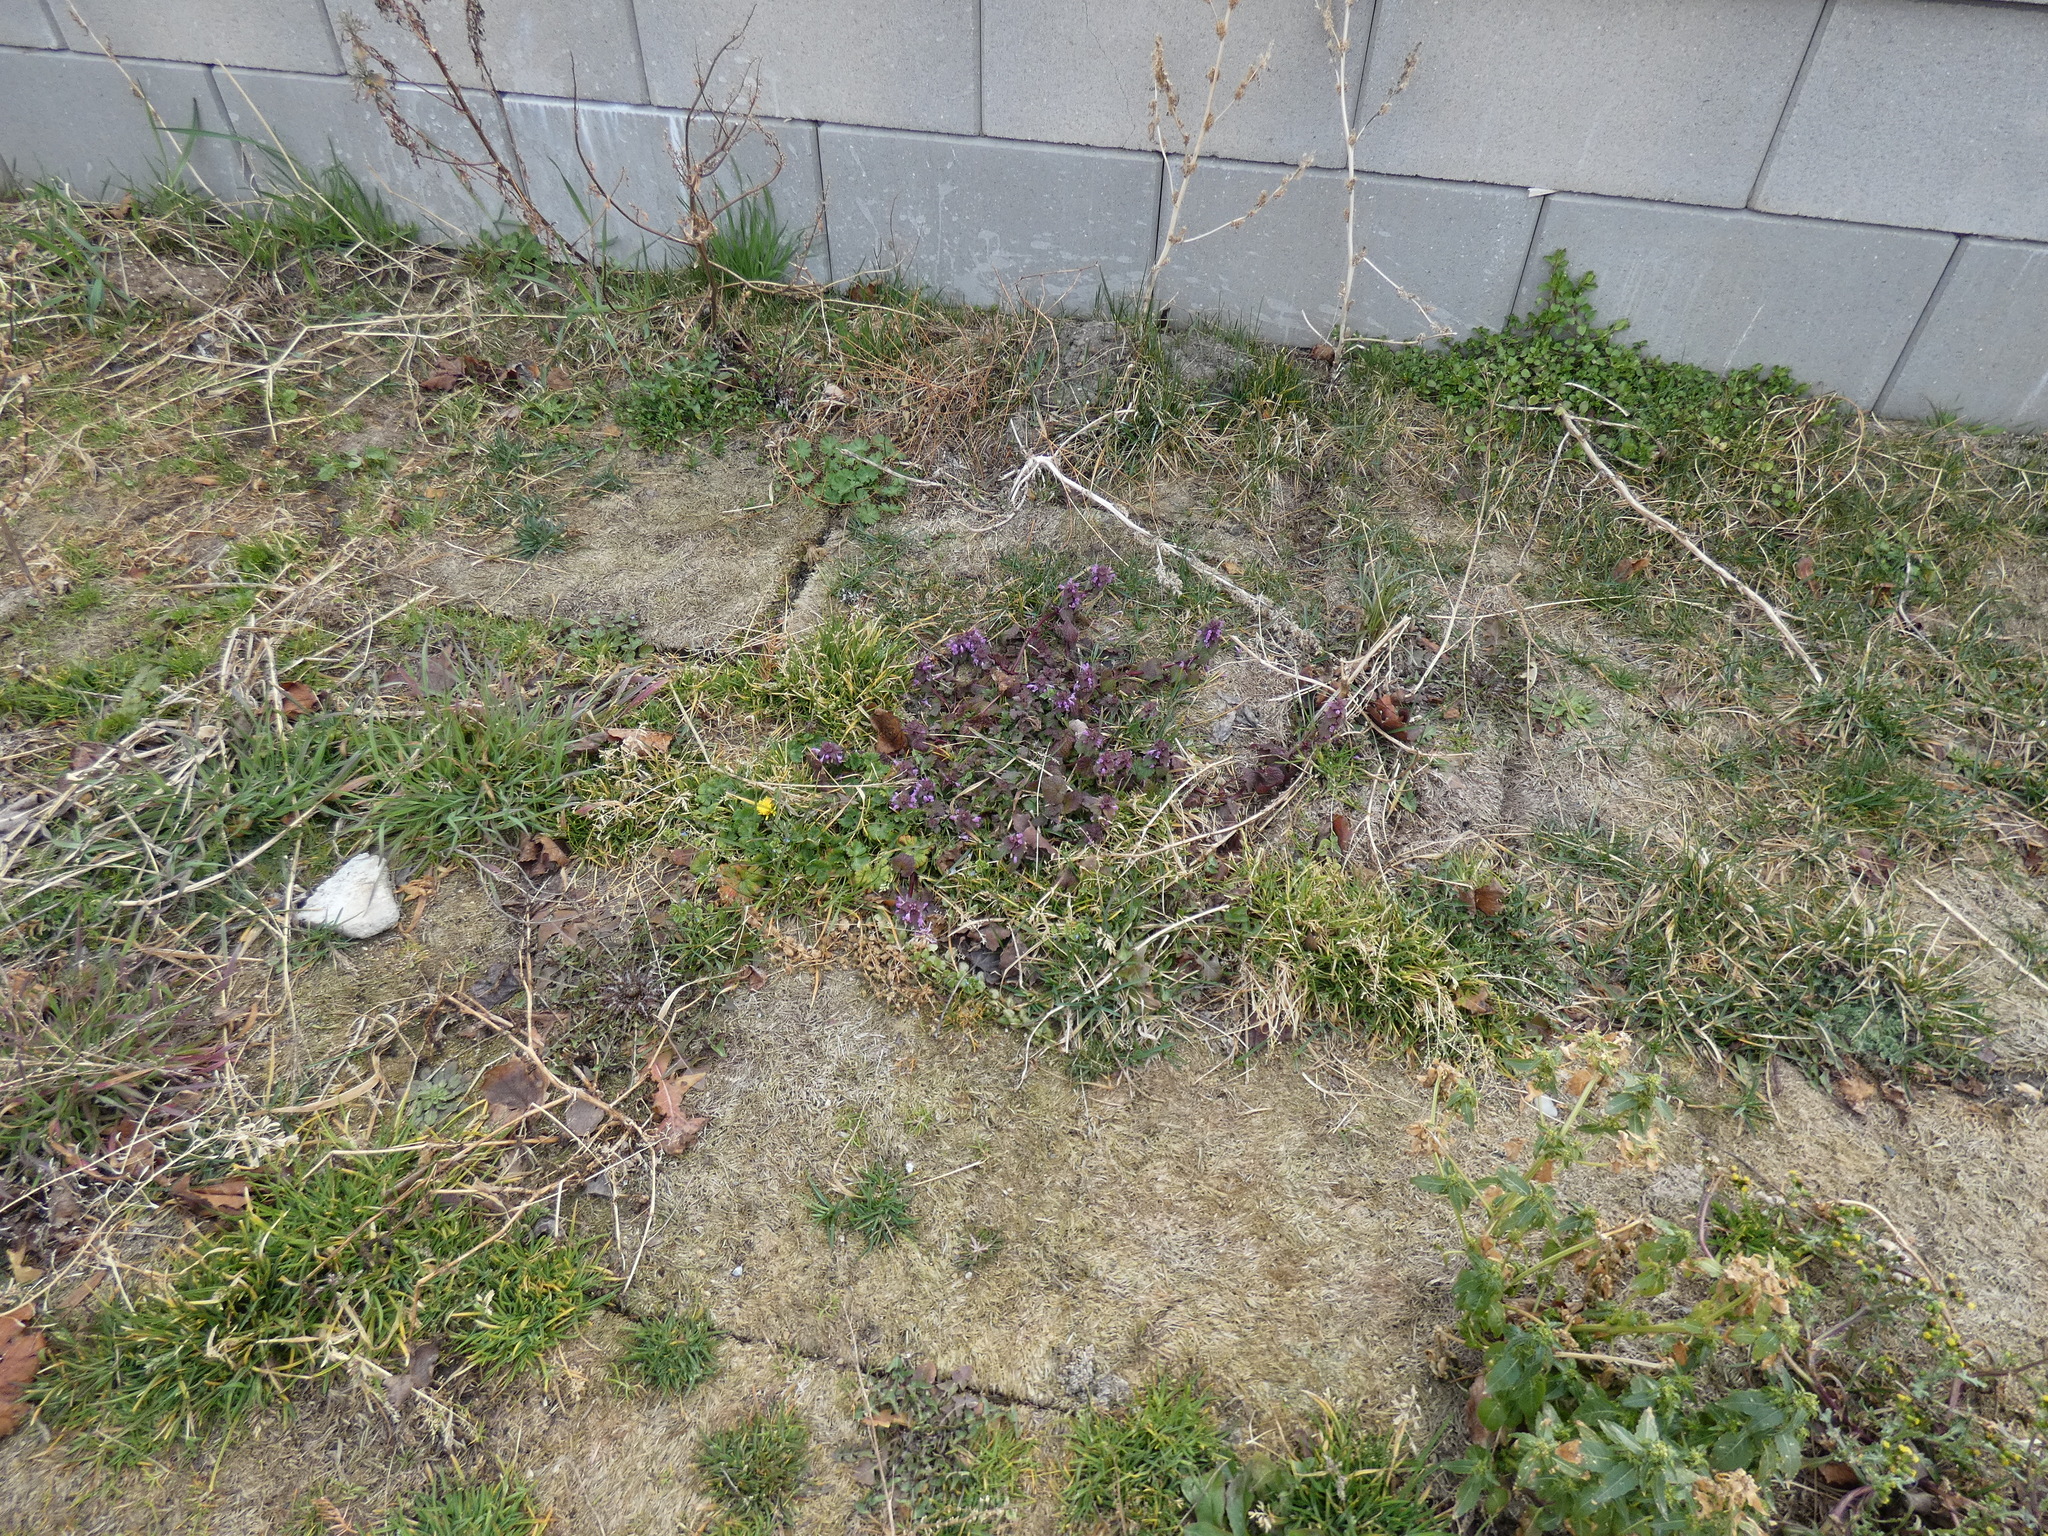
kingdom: Plantae
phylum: Tracheophyta
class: Magnoliopsida
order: Lamiales
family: Lamiaceae
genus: Lamium
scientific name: Lamium purpureum
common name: Red dead-nettle
